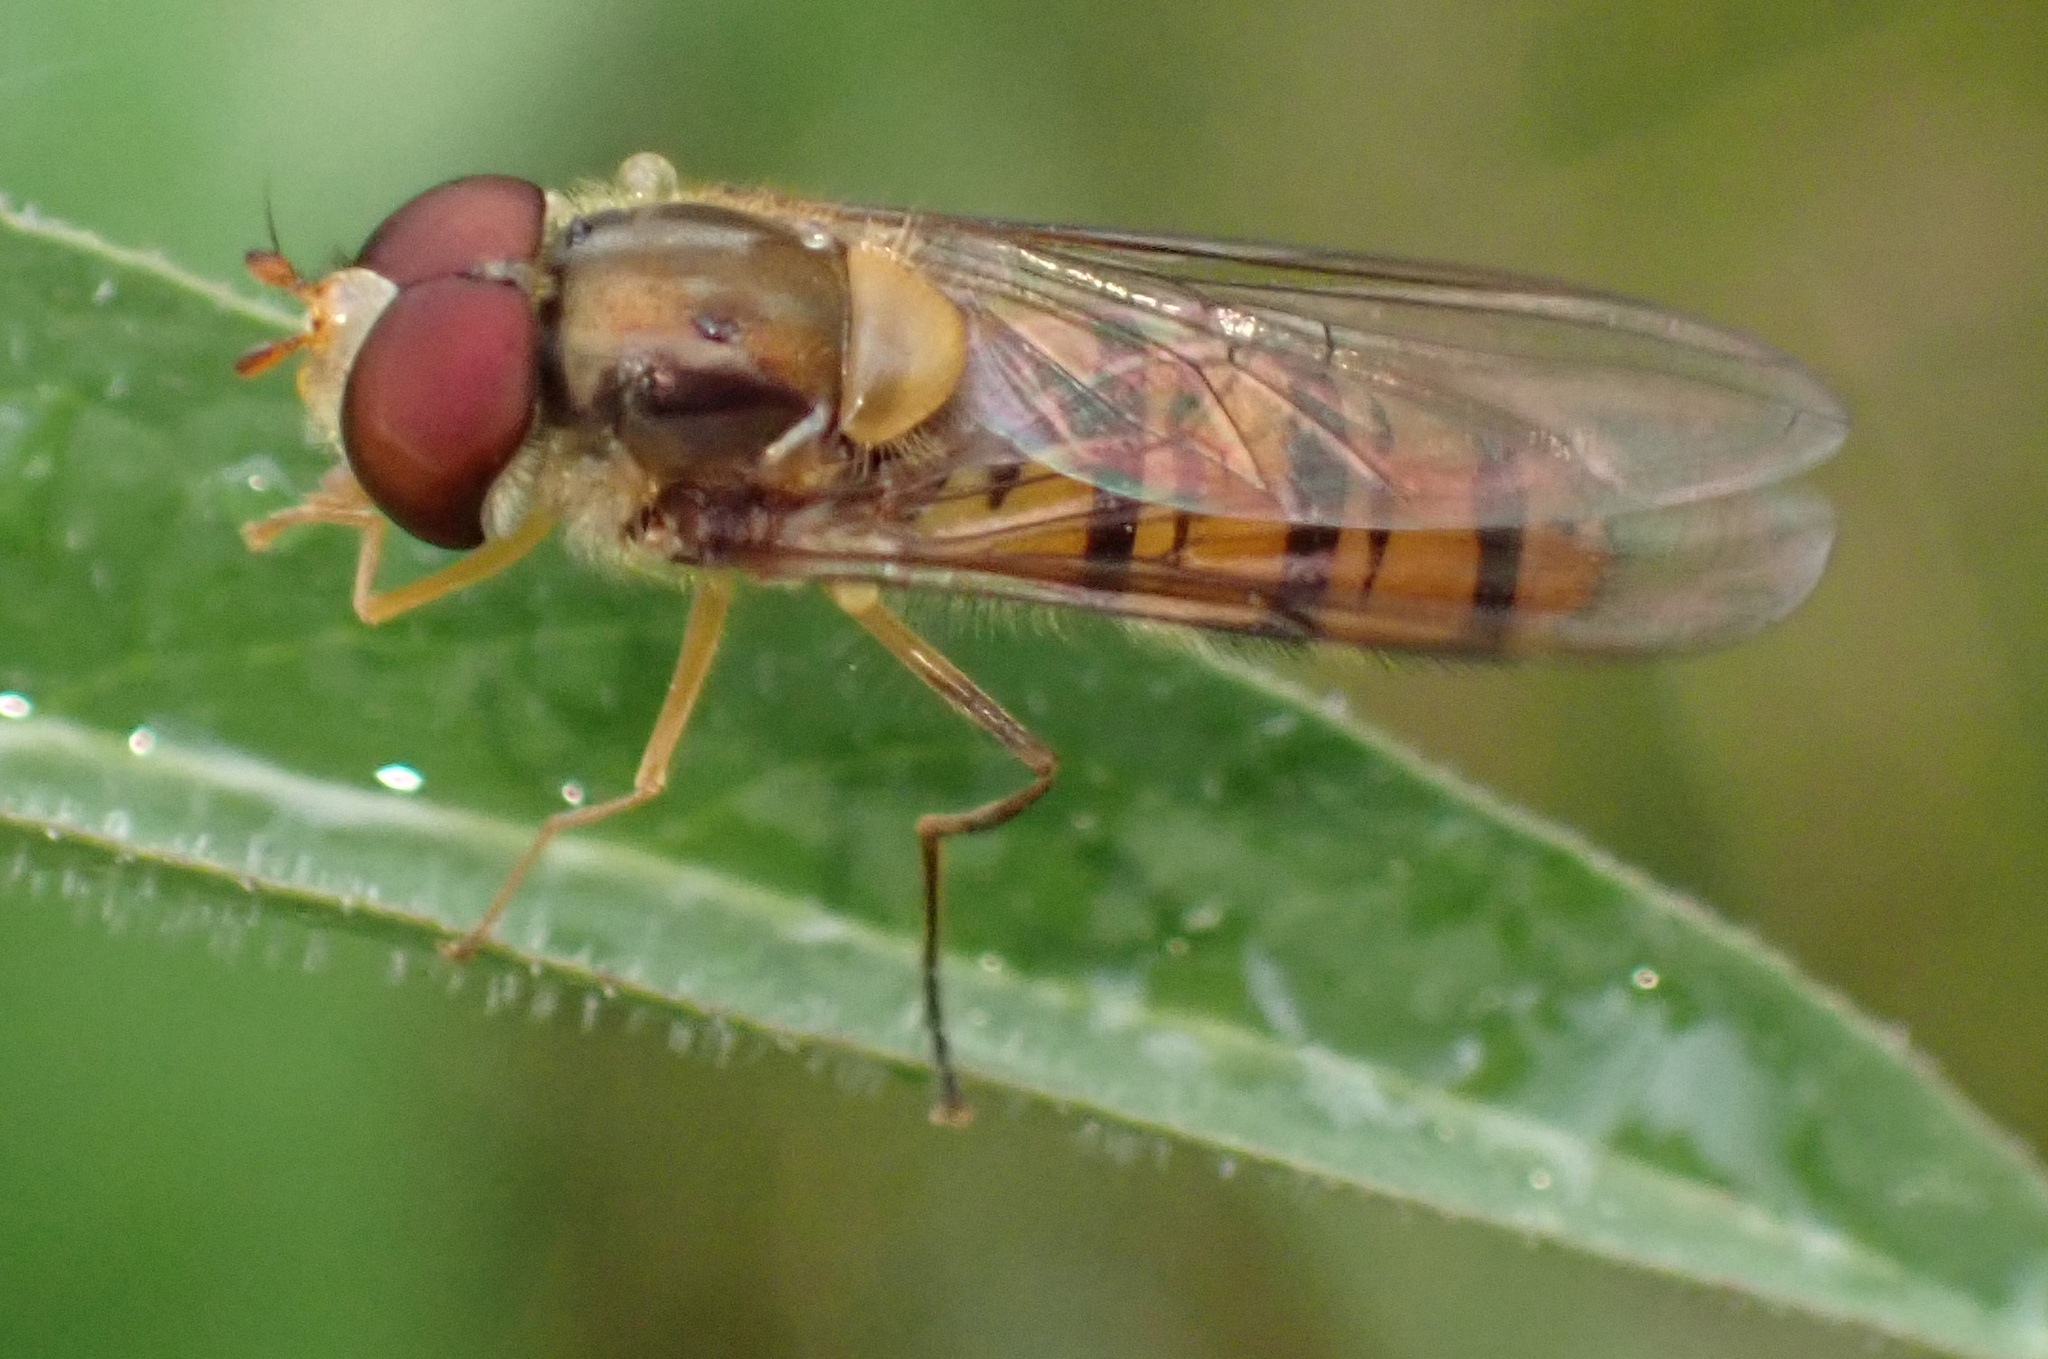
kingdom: Animalia
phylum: Arthropoda
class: Insecta
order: Diptera
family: Syrphidae
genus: Episyrphus
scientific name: Episyrphus balteatus
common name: Marmalade hoverfly
